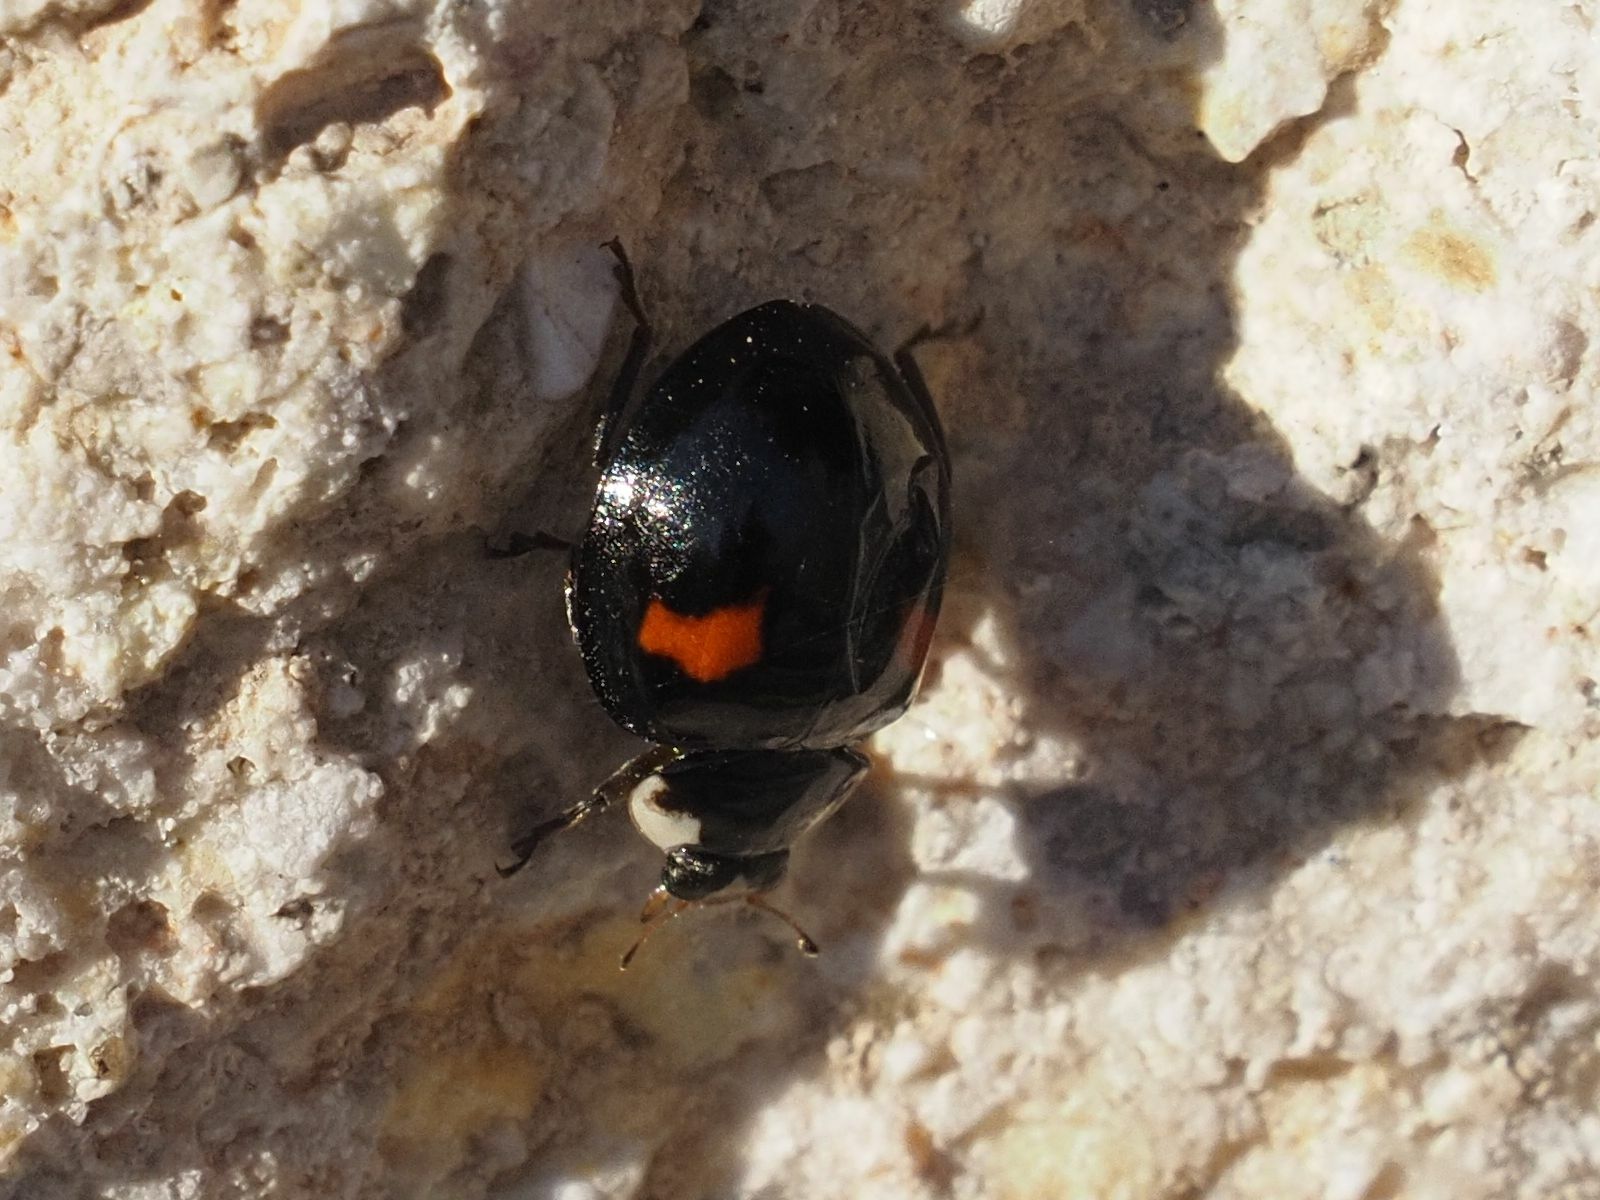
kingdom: Animalia
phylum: Arthropoda
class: Insecta
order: Coleoptera
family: Coccinellidae
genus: Harmonia
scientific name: Harmonia axyridis
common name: Harlequin ladybird
